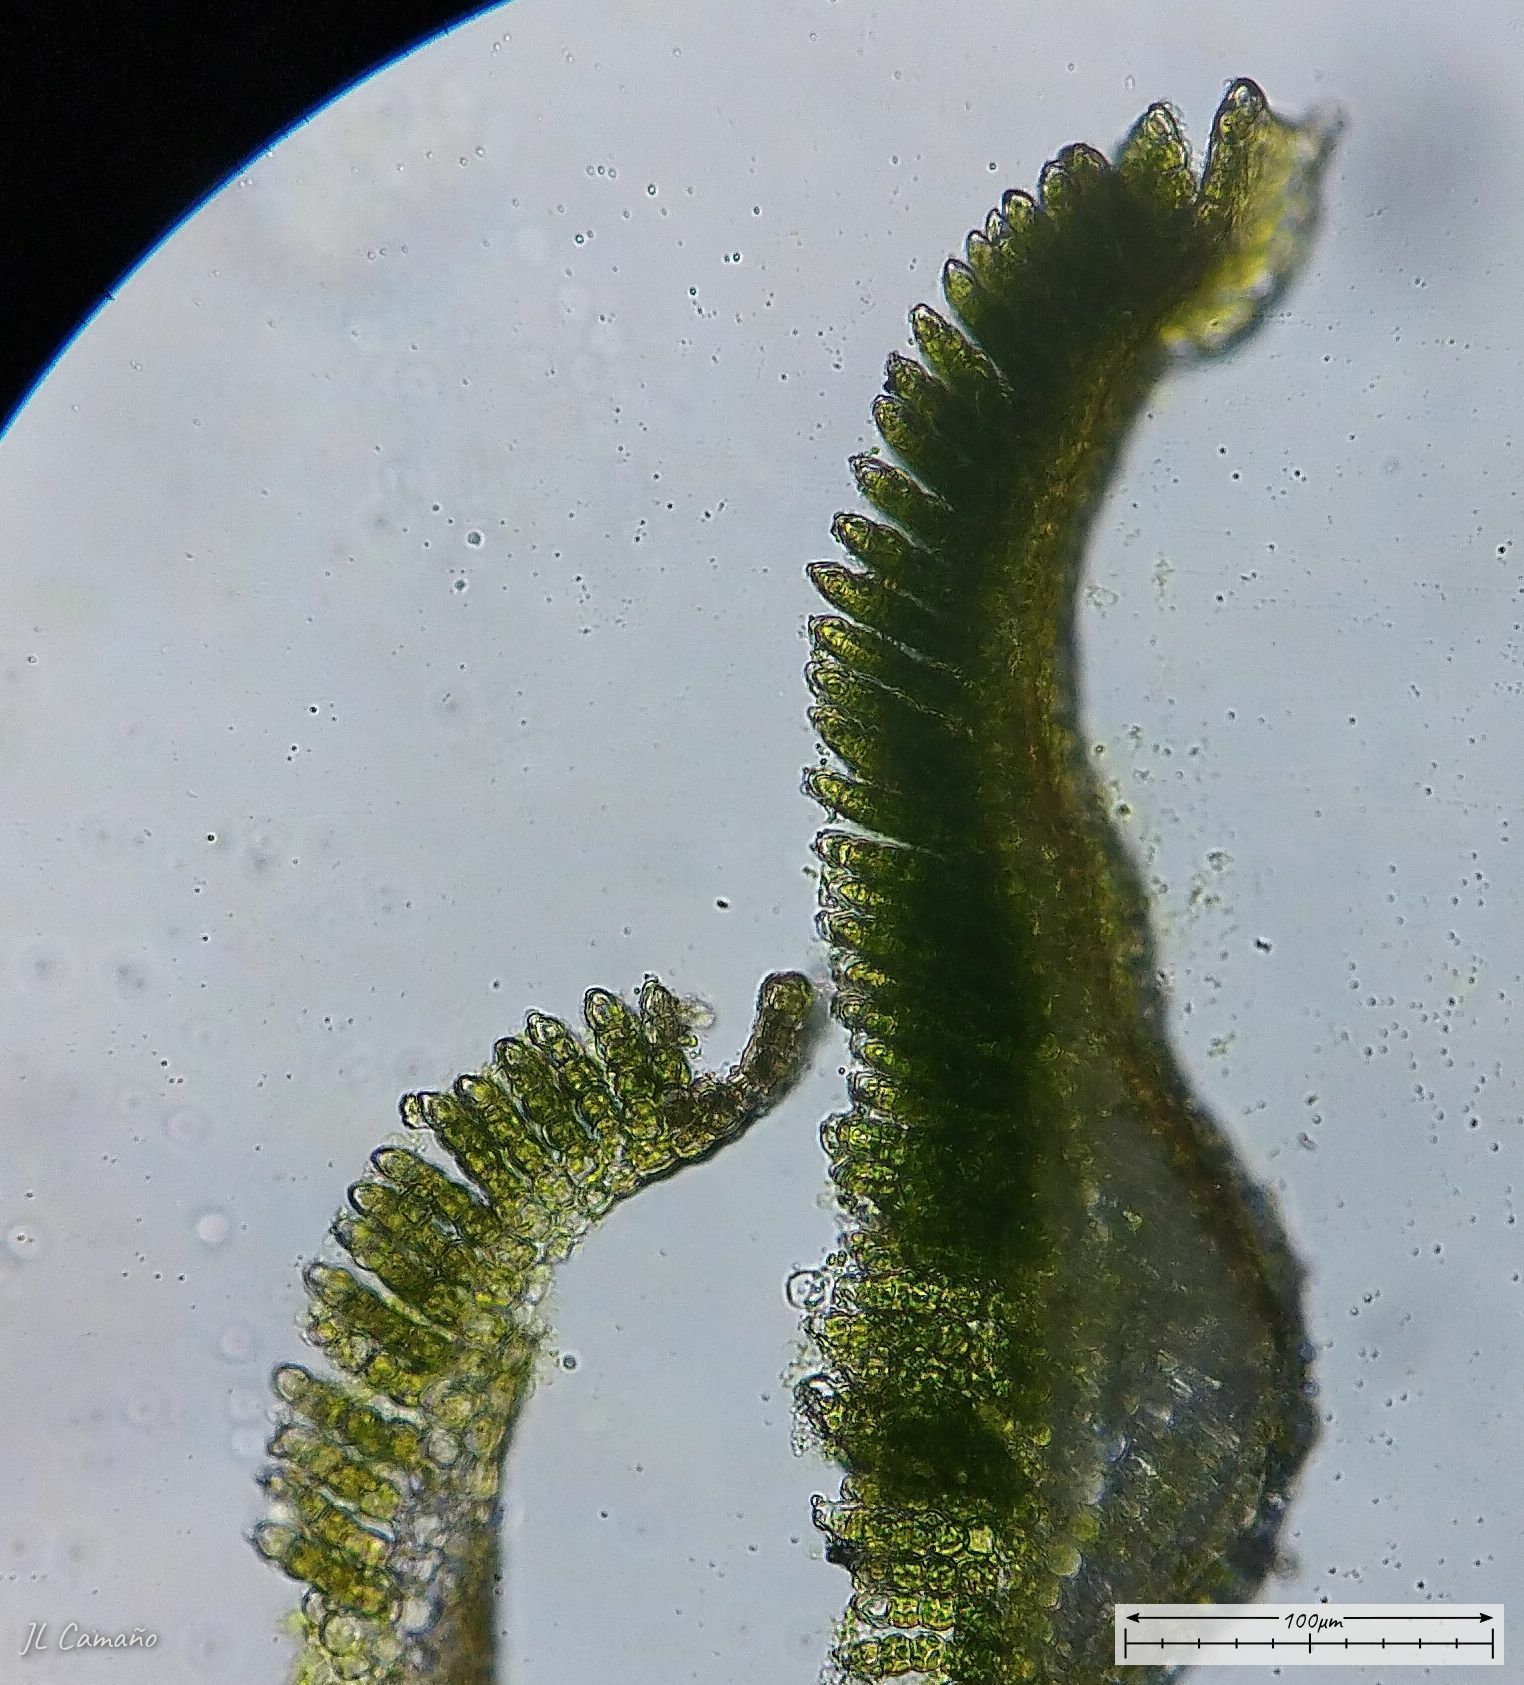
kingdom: Plantae
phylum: Bryophyta
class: Polytrichopsida
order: Polytrichales
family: Polytrichaceae
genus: Polytrichum
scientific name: Polytrichum formosum
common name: Bank haircap moss
